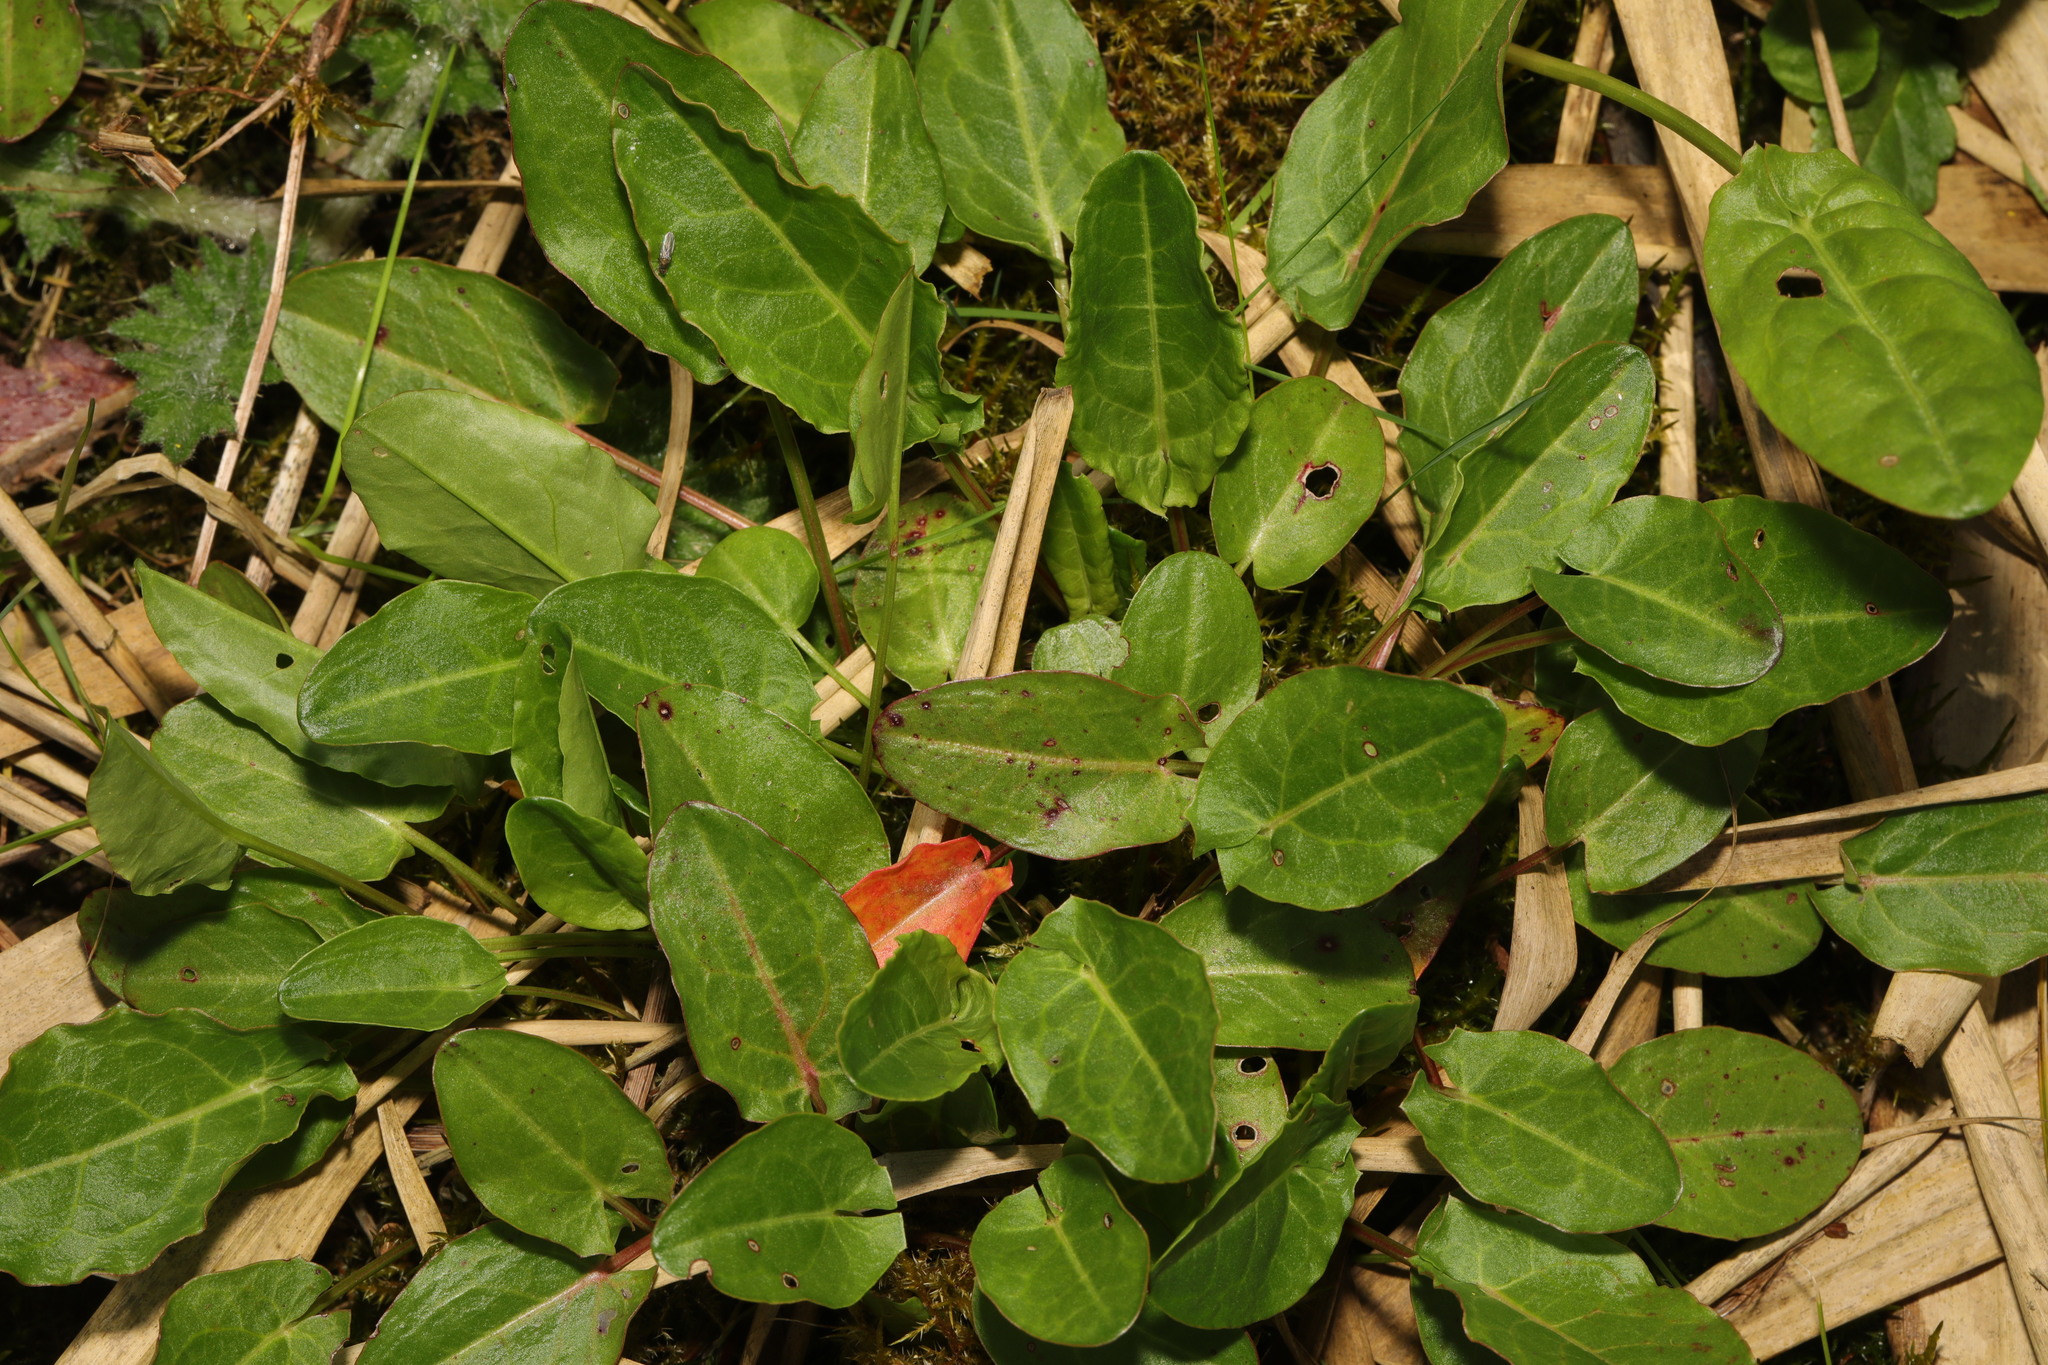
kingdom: Plantae
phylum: Tracheophyta
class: Magnoliopsida
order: Caryophyllales
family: Polygonaceae
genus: Rumex
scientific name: Rumex acetosa
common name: Garden sorrel
